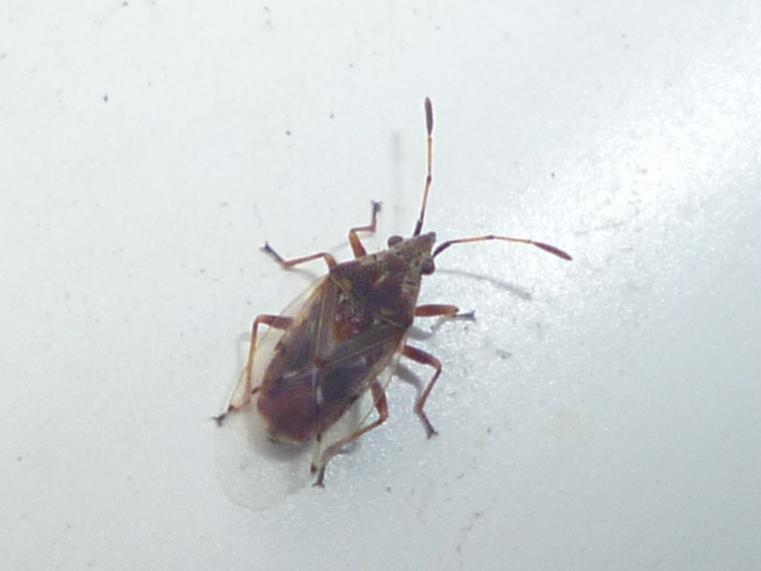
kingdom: Animalia
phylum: Arthropoda
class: Insecta
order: Hemiptera
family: Lygaeidae
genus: Kleidocerys
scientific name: Kleidocerys resedae
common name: Birch catkin bug
